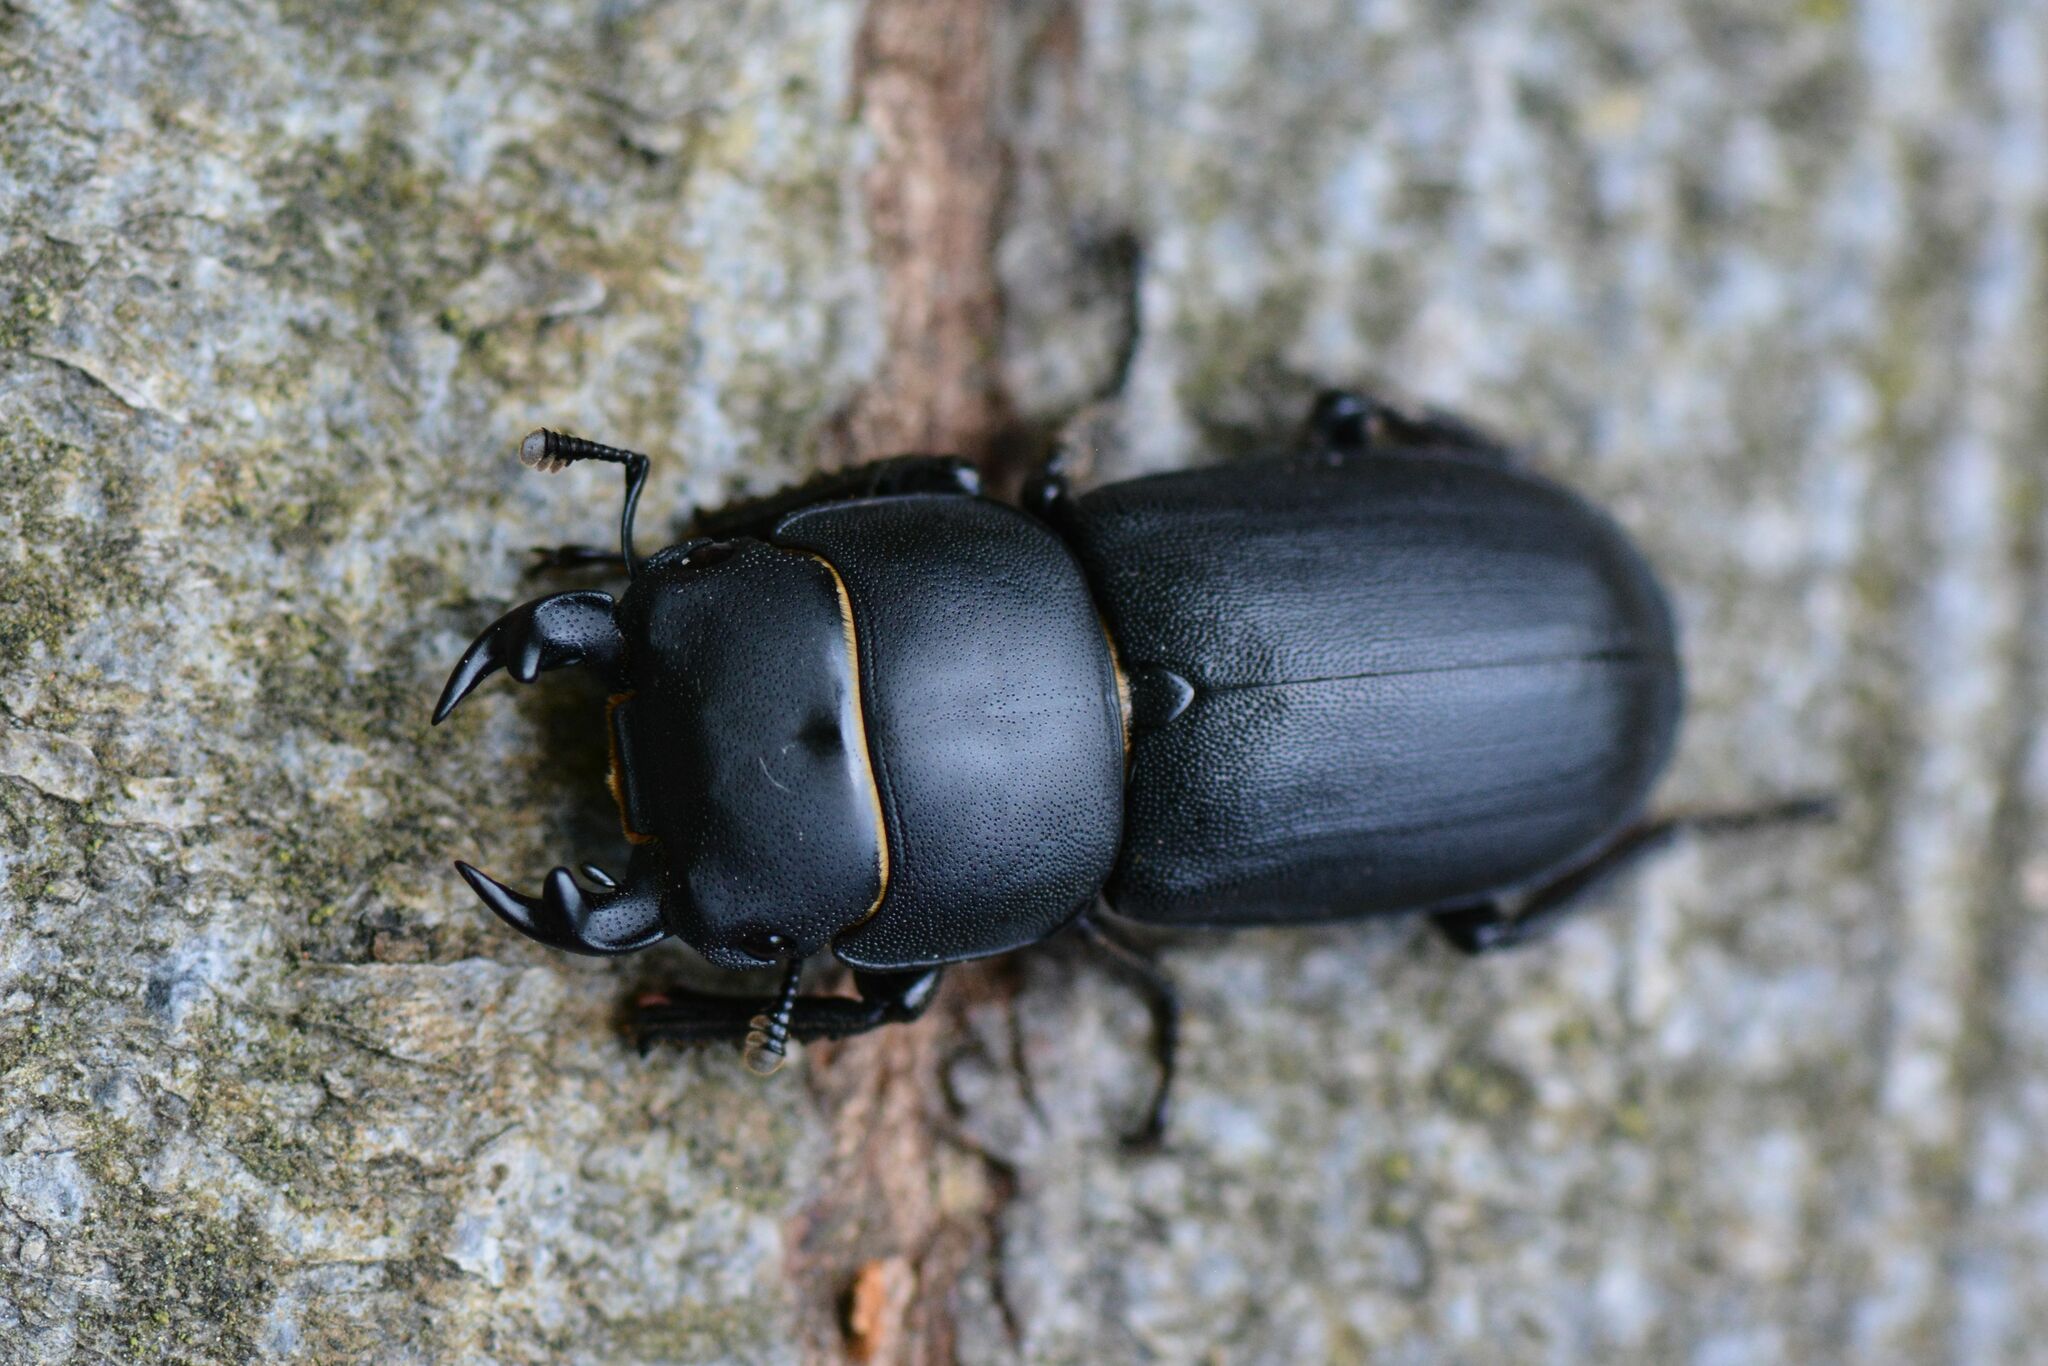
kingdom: Animalia
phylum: Arthropoda
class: Insecta
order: Coleoptera
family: Lucanidae
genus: Dorcus
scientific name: Dorcus parallelipipedus
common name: Lesser stag beetle
